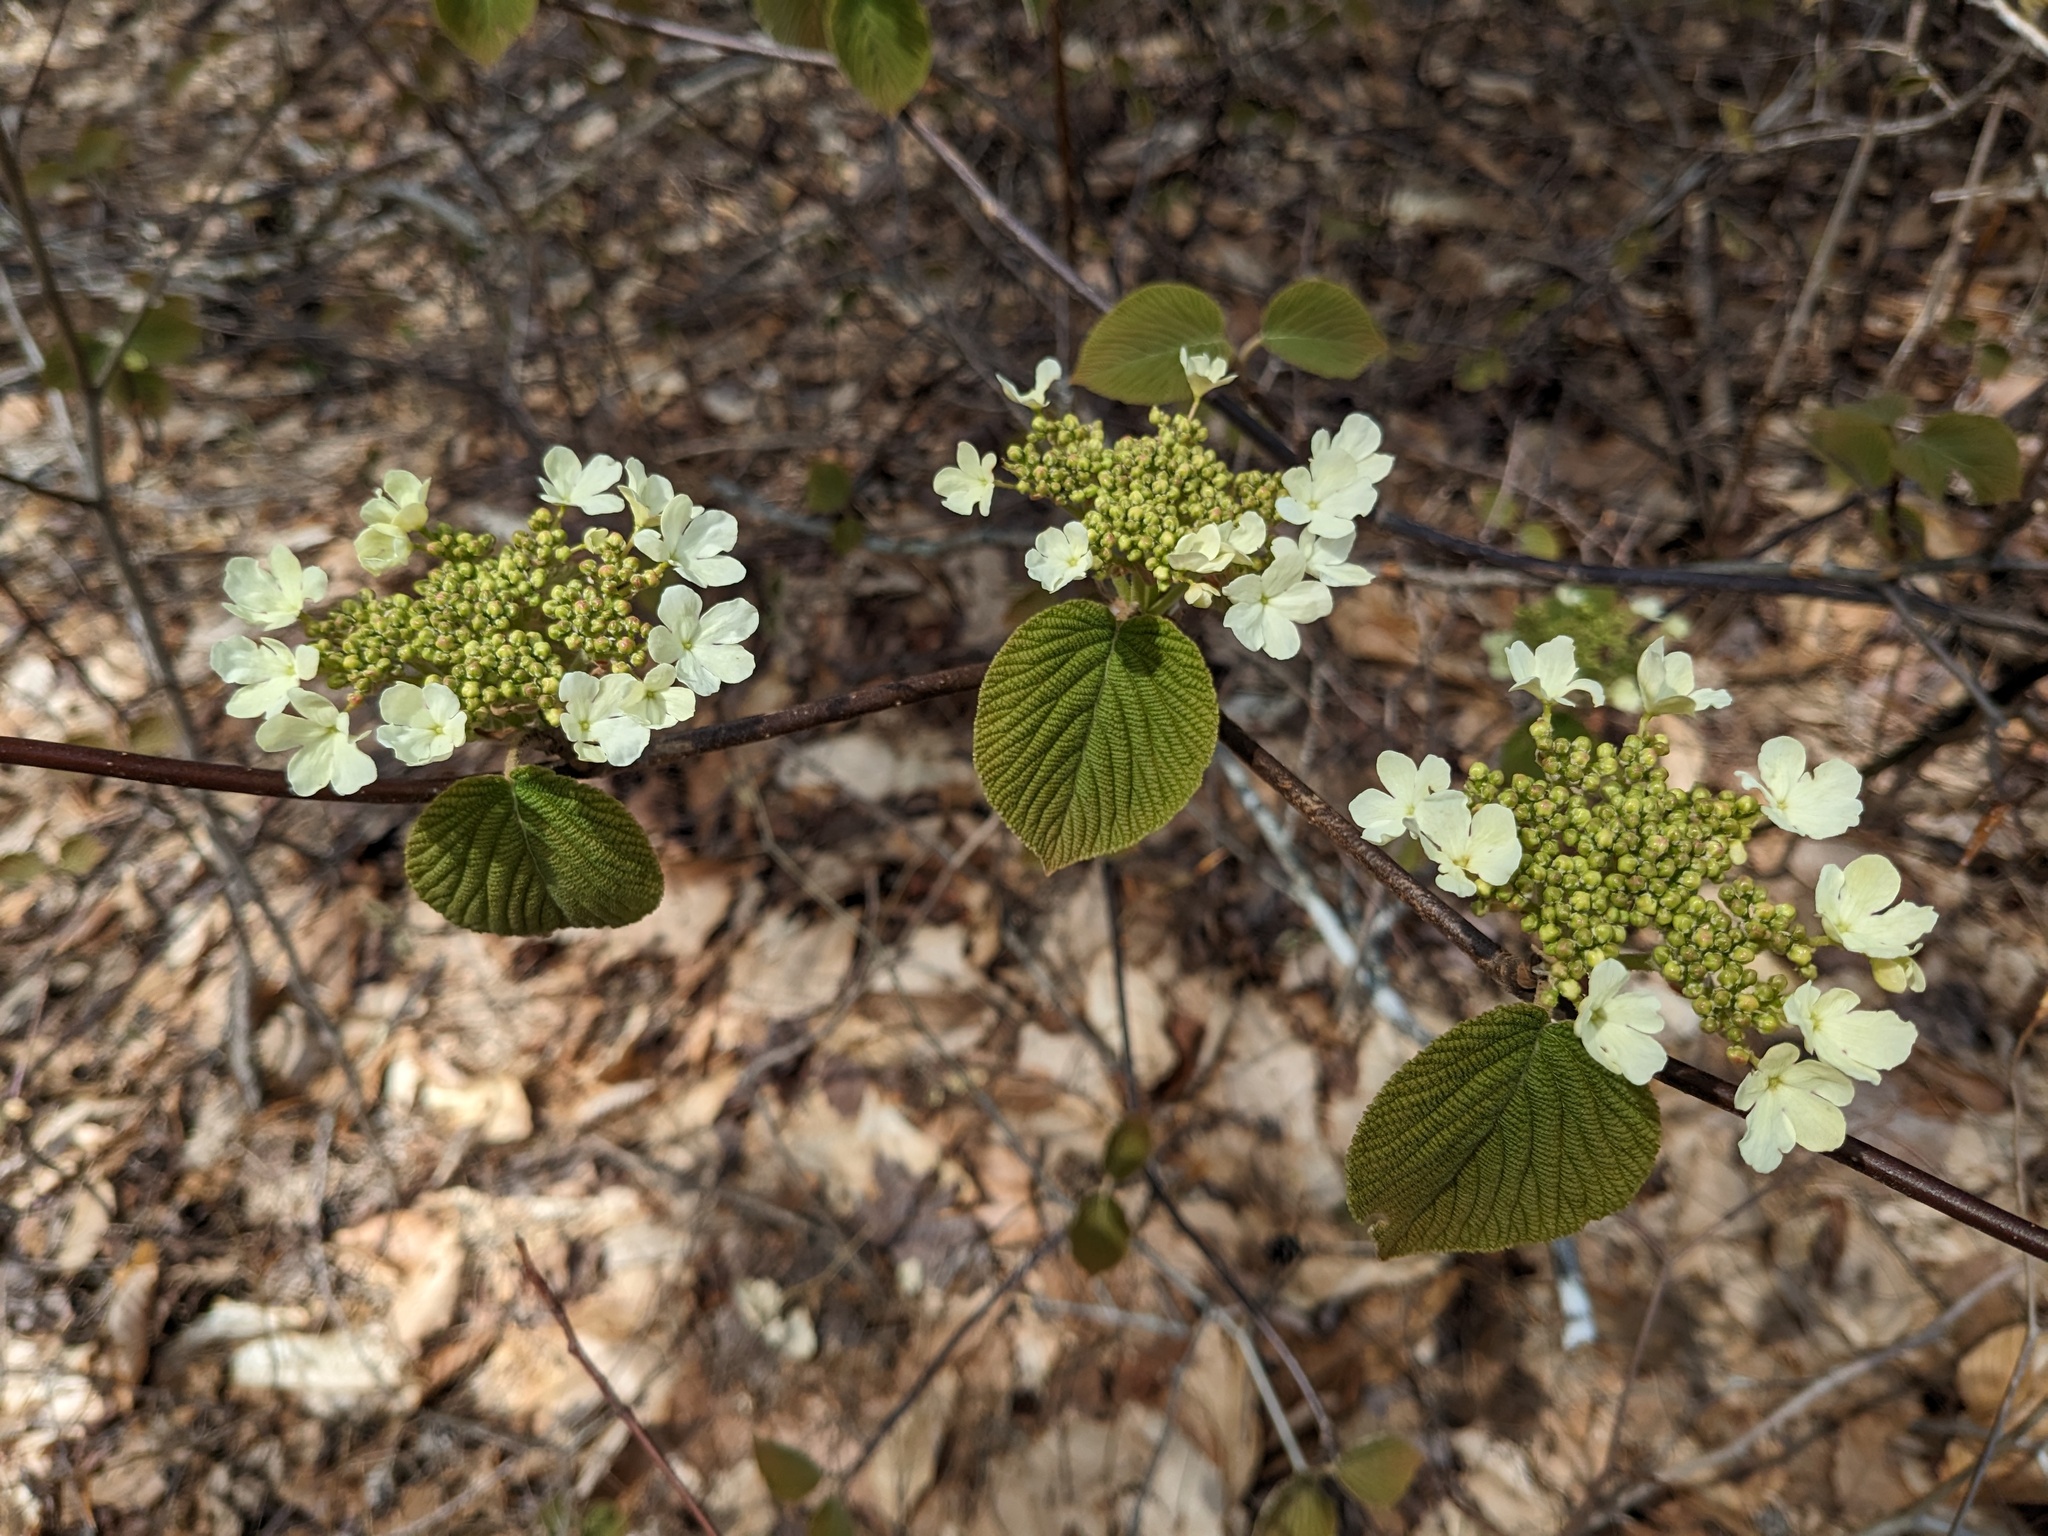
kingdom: Plantae
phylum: Tracheophyta
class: Magnoliopsida
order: Dipsacales
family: Viburnaceae
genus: Viburnum
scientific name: Viburnum lantanoides
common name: Hobblebush
